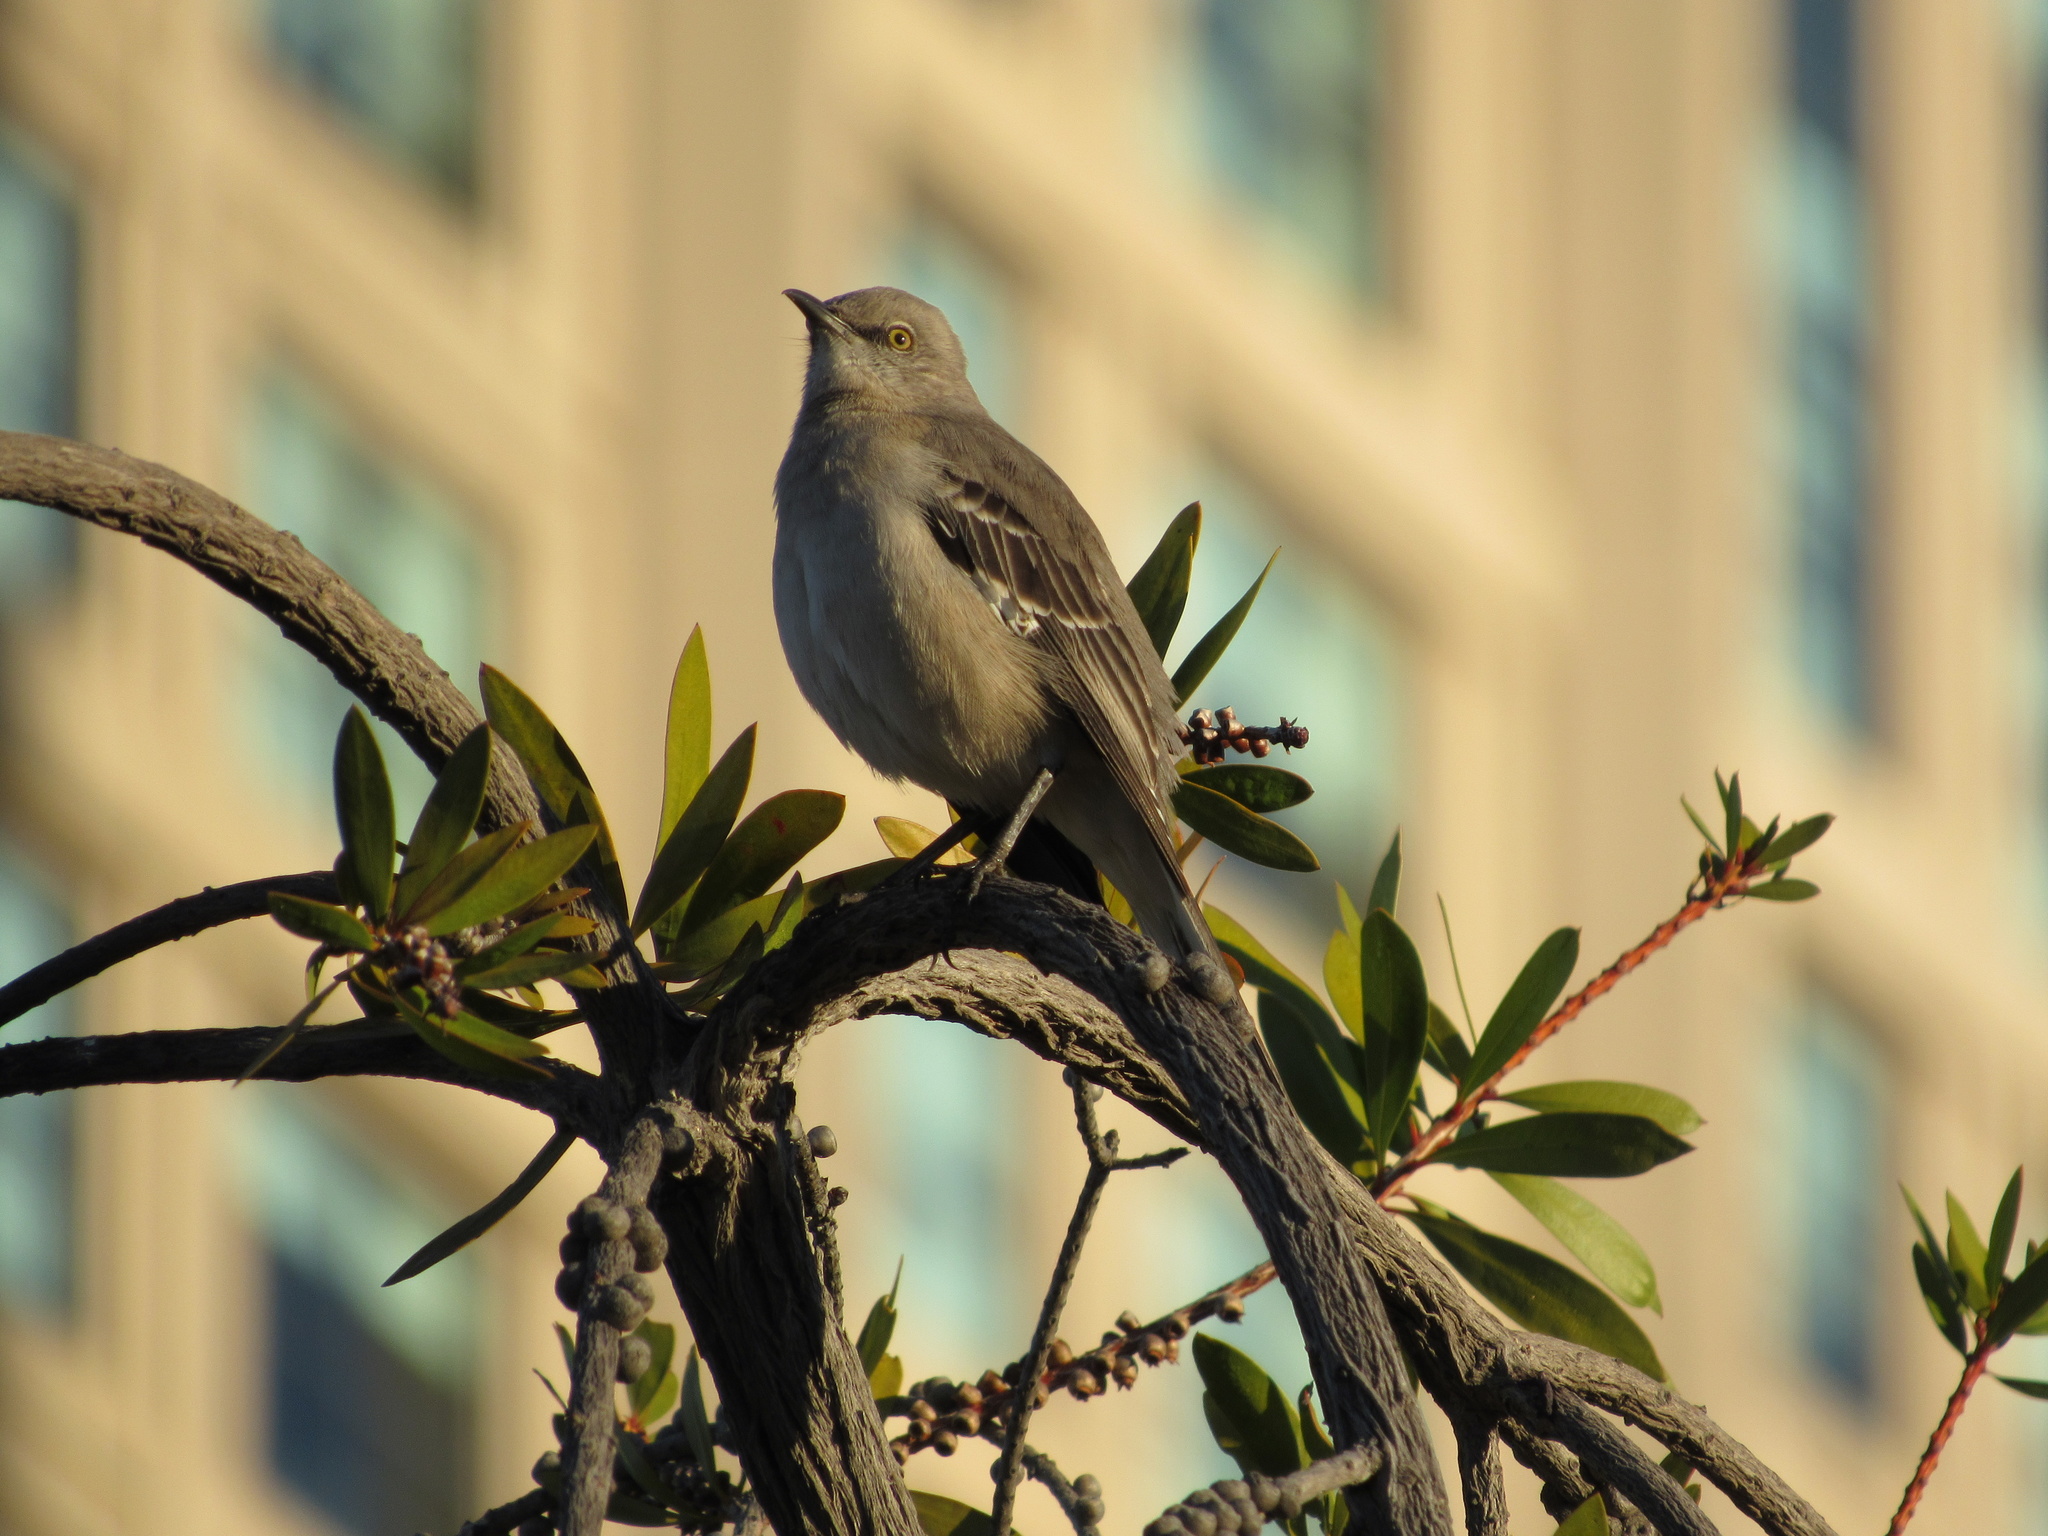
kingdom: Animalia
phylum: Chordata
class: Aves
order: Passeriformes
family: Mimidae
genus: Mimus
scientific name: Mimus polyglottos
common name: Northern mockingbird
